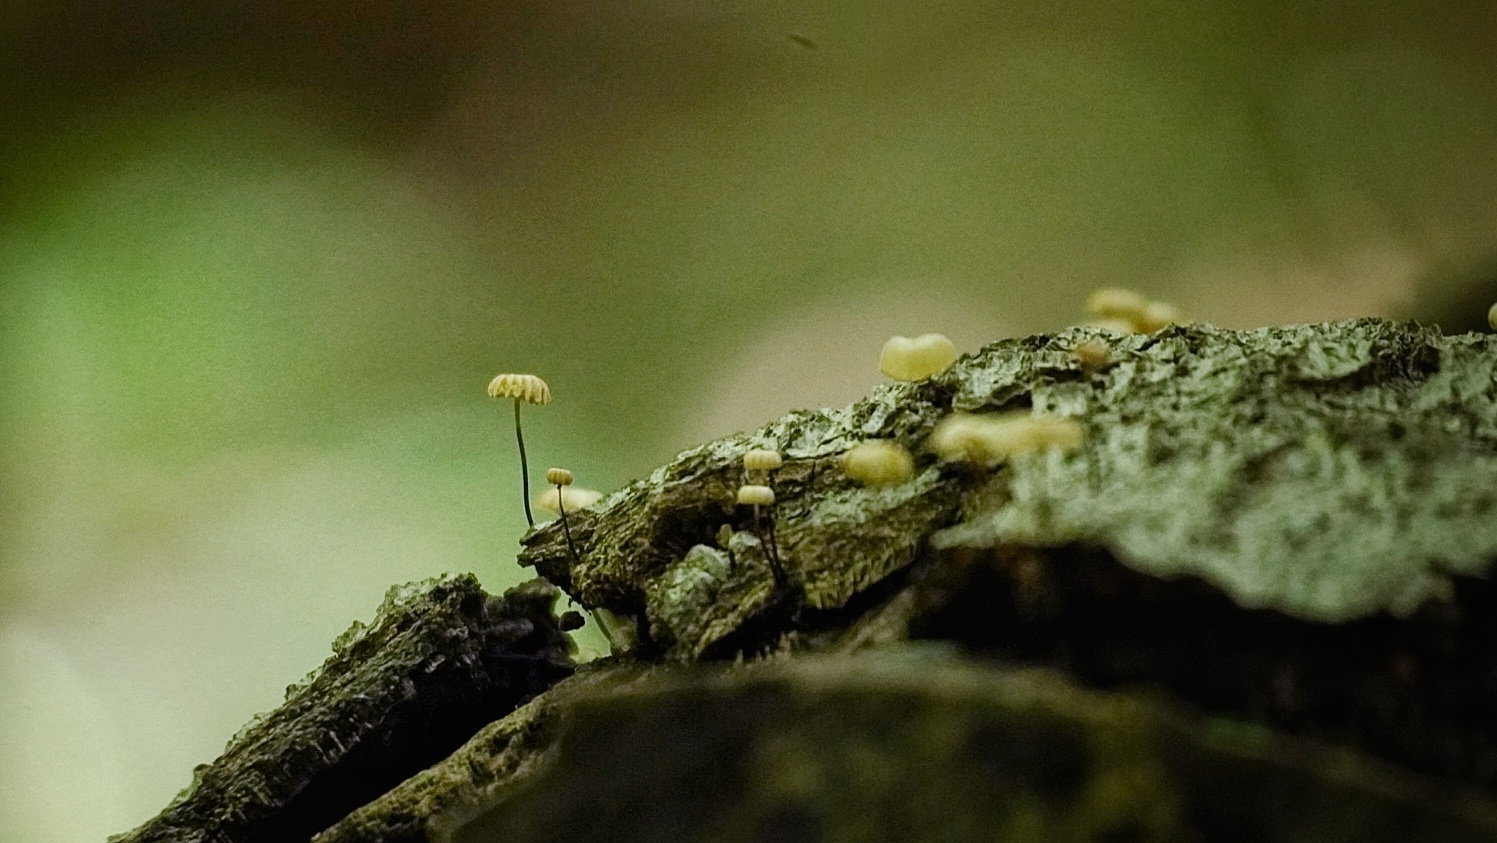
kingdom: Fungi
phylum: Basidiomycota
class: Agaricomycetes
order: Agaricales
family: Marasmiaceae
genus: Marasmius
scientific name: Marasmius rotula
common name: Collared parachute
